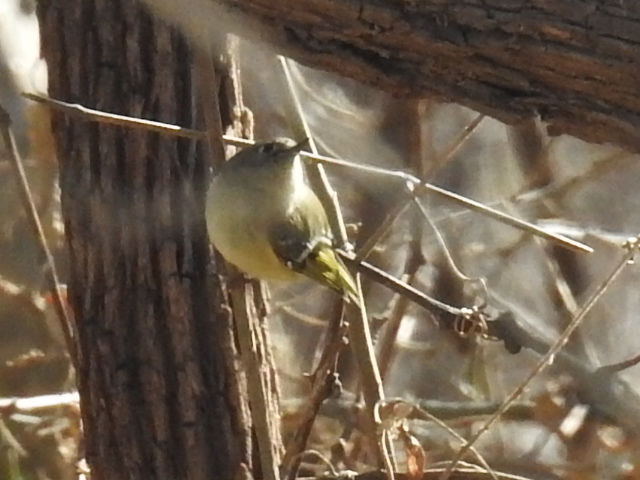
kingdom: Animalia
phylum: Chordata
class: Aves
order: Passeriformes
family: Regulidae
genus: Regulus
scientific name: Regulus calendula
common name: Ruby-crowned kinglet
